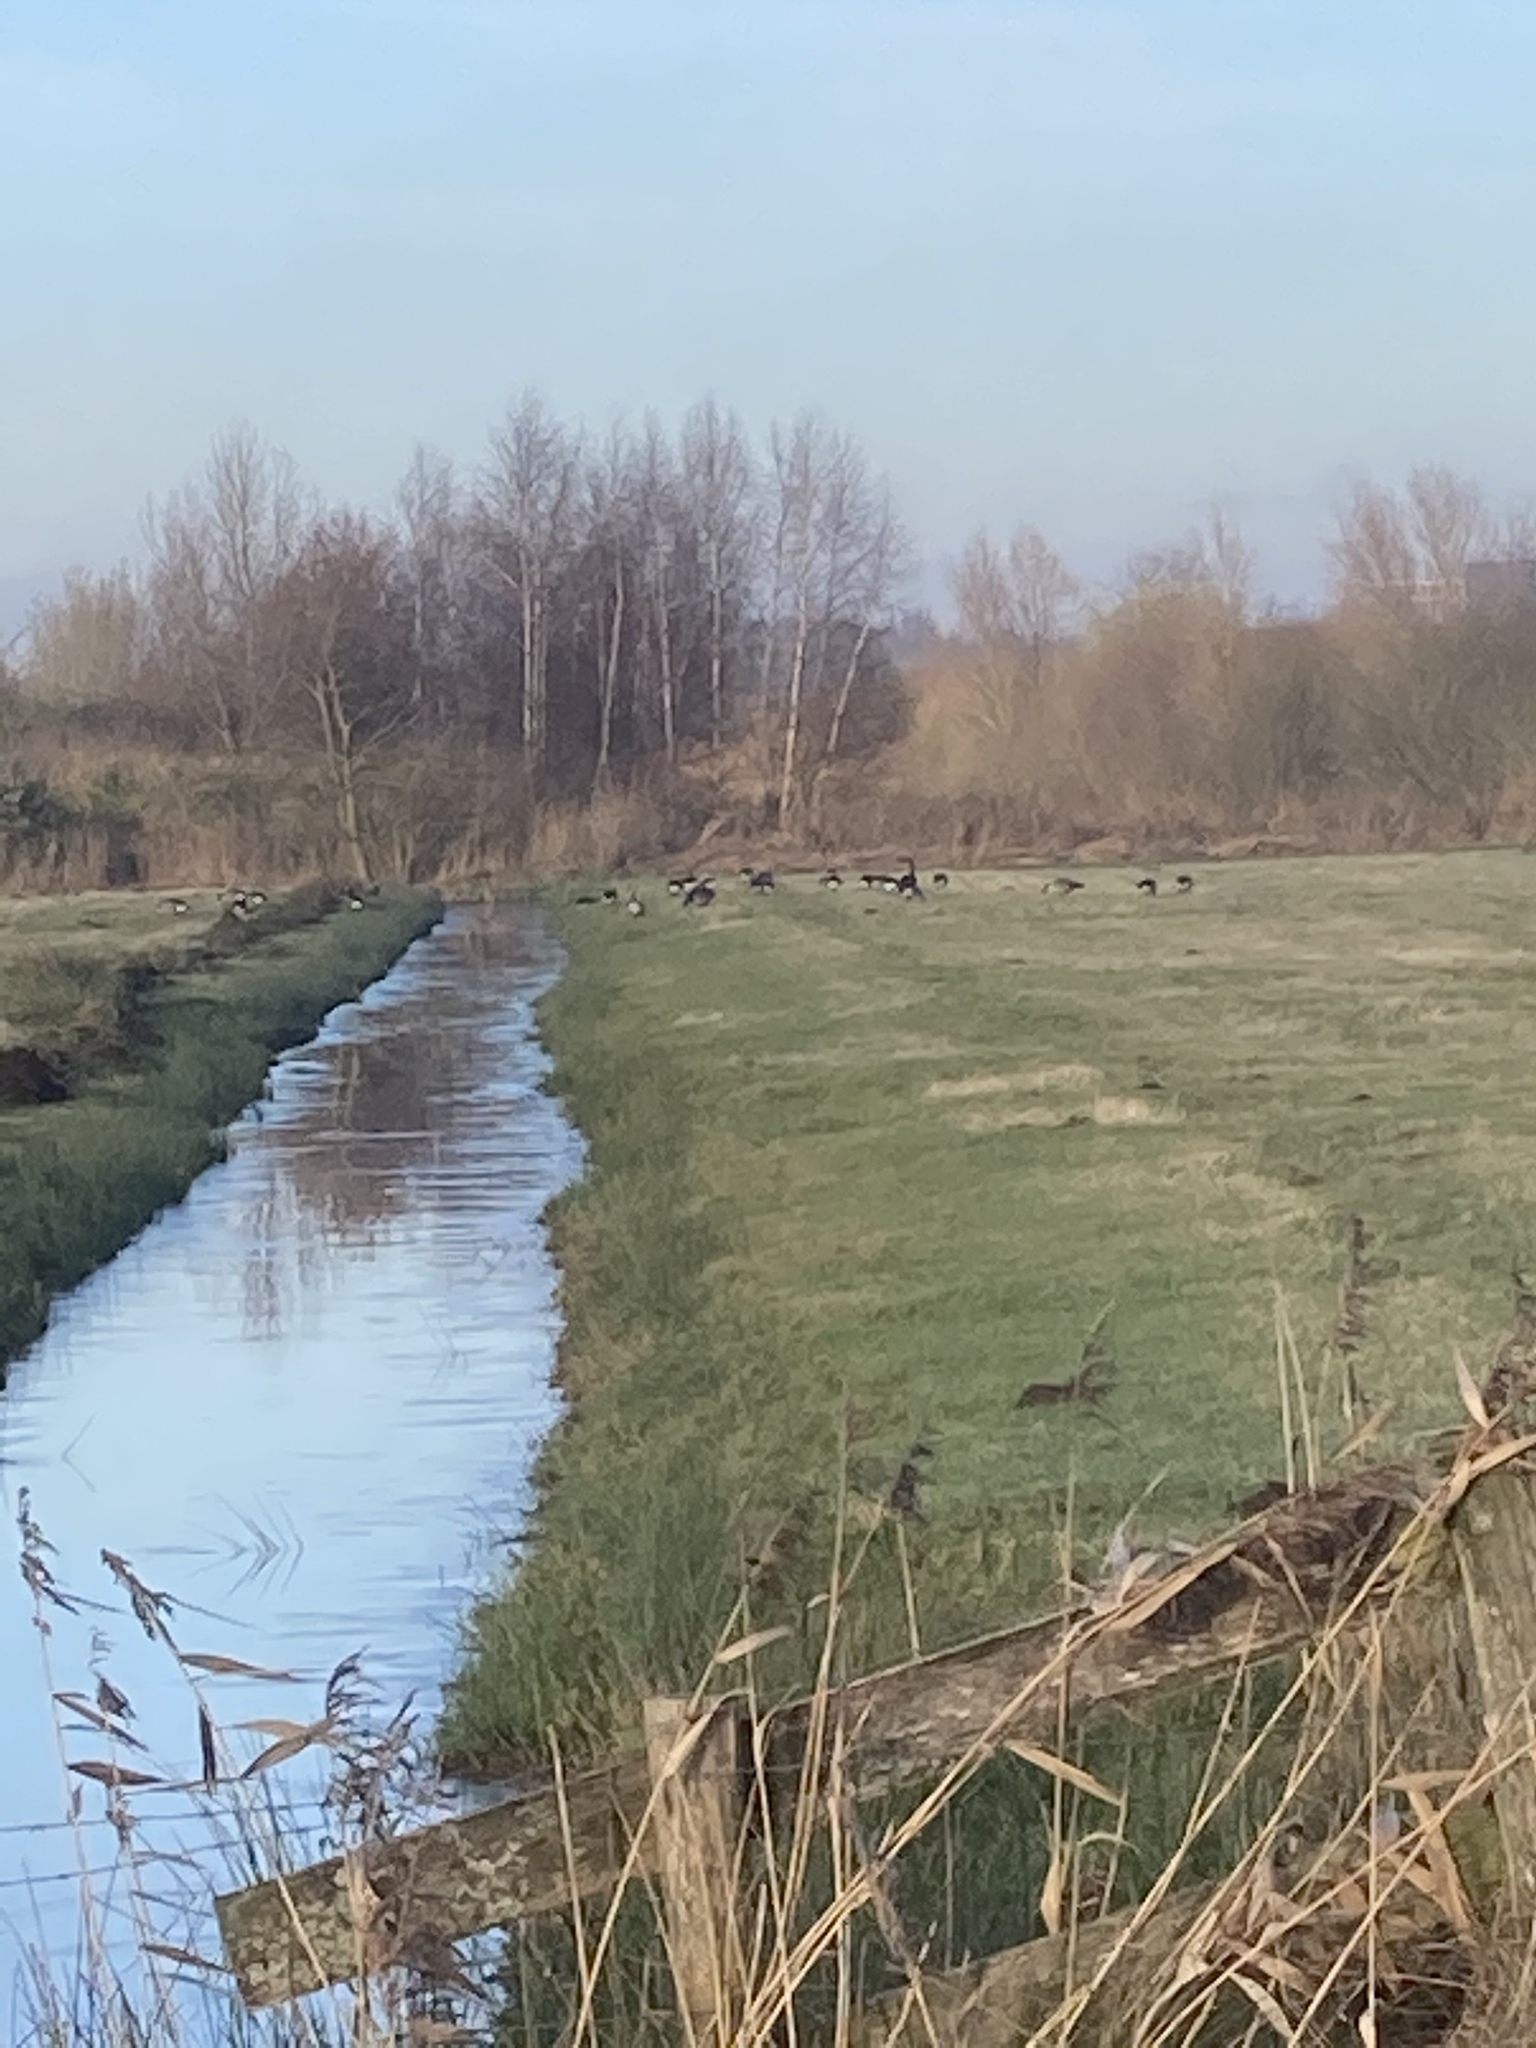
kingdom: Animalia
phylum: Chordata
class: Aves
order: Anseriformes
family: Anatidae
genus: Branta
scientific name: Branta canadensis
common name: Canada goose
